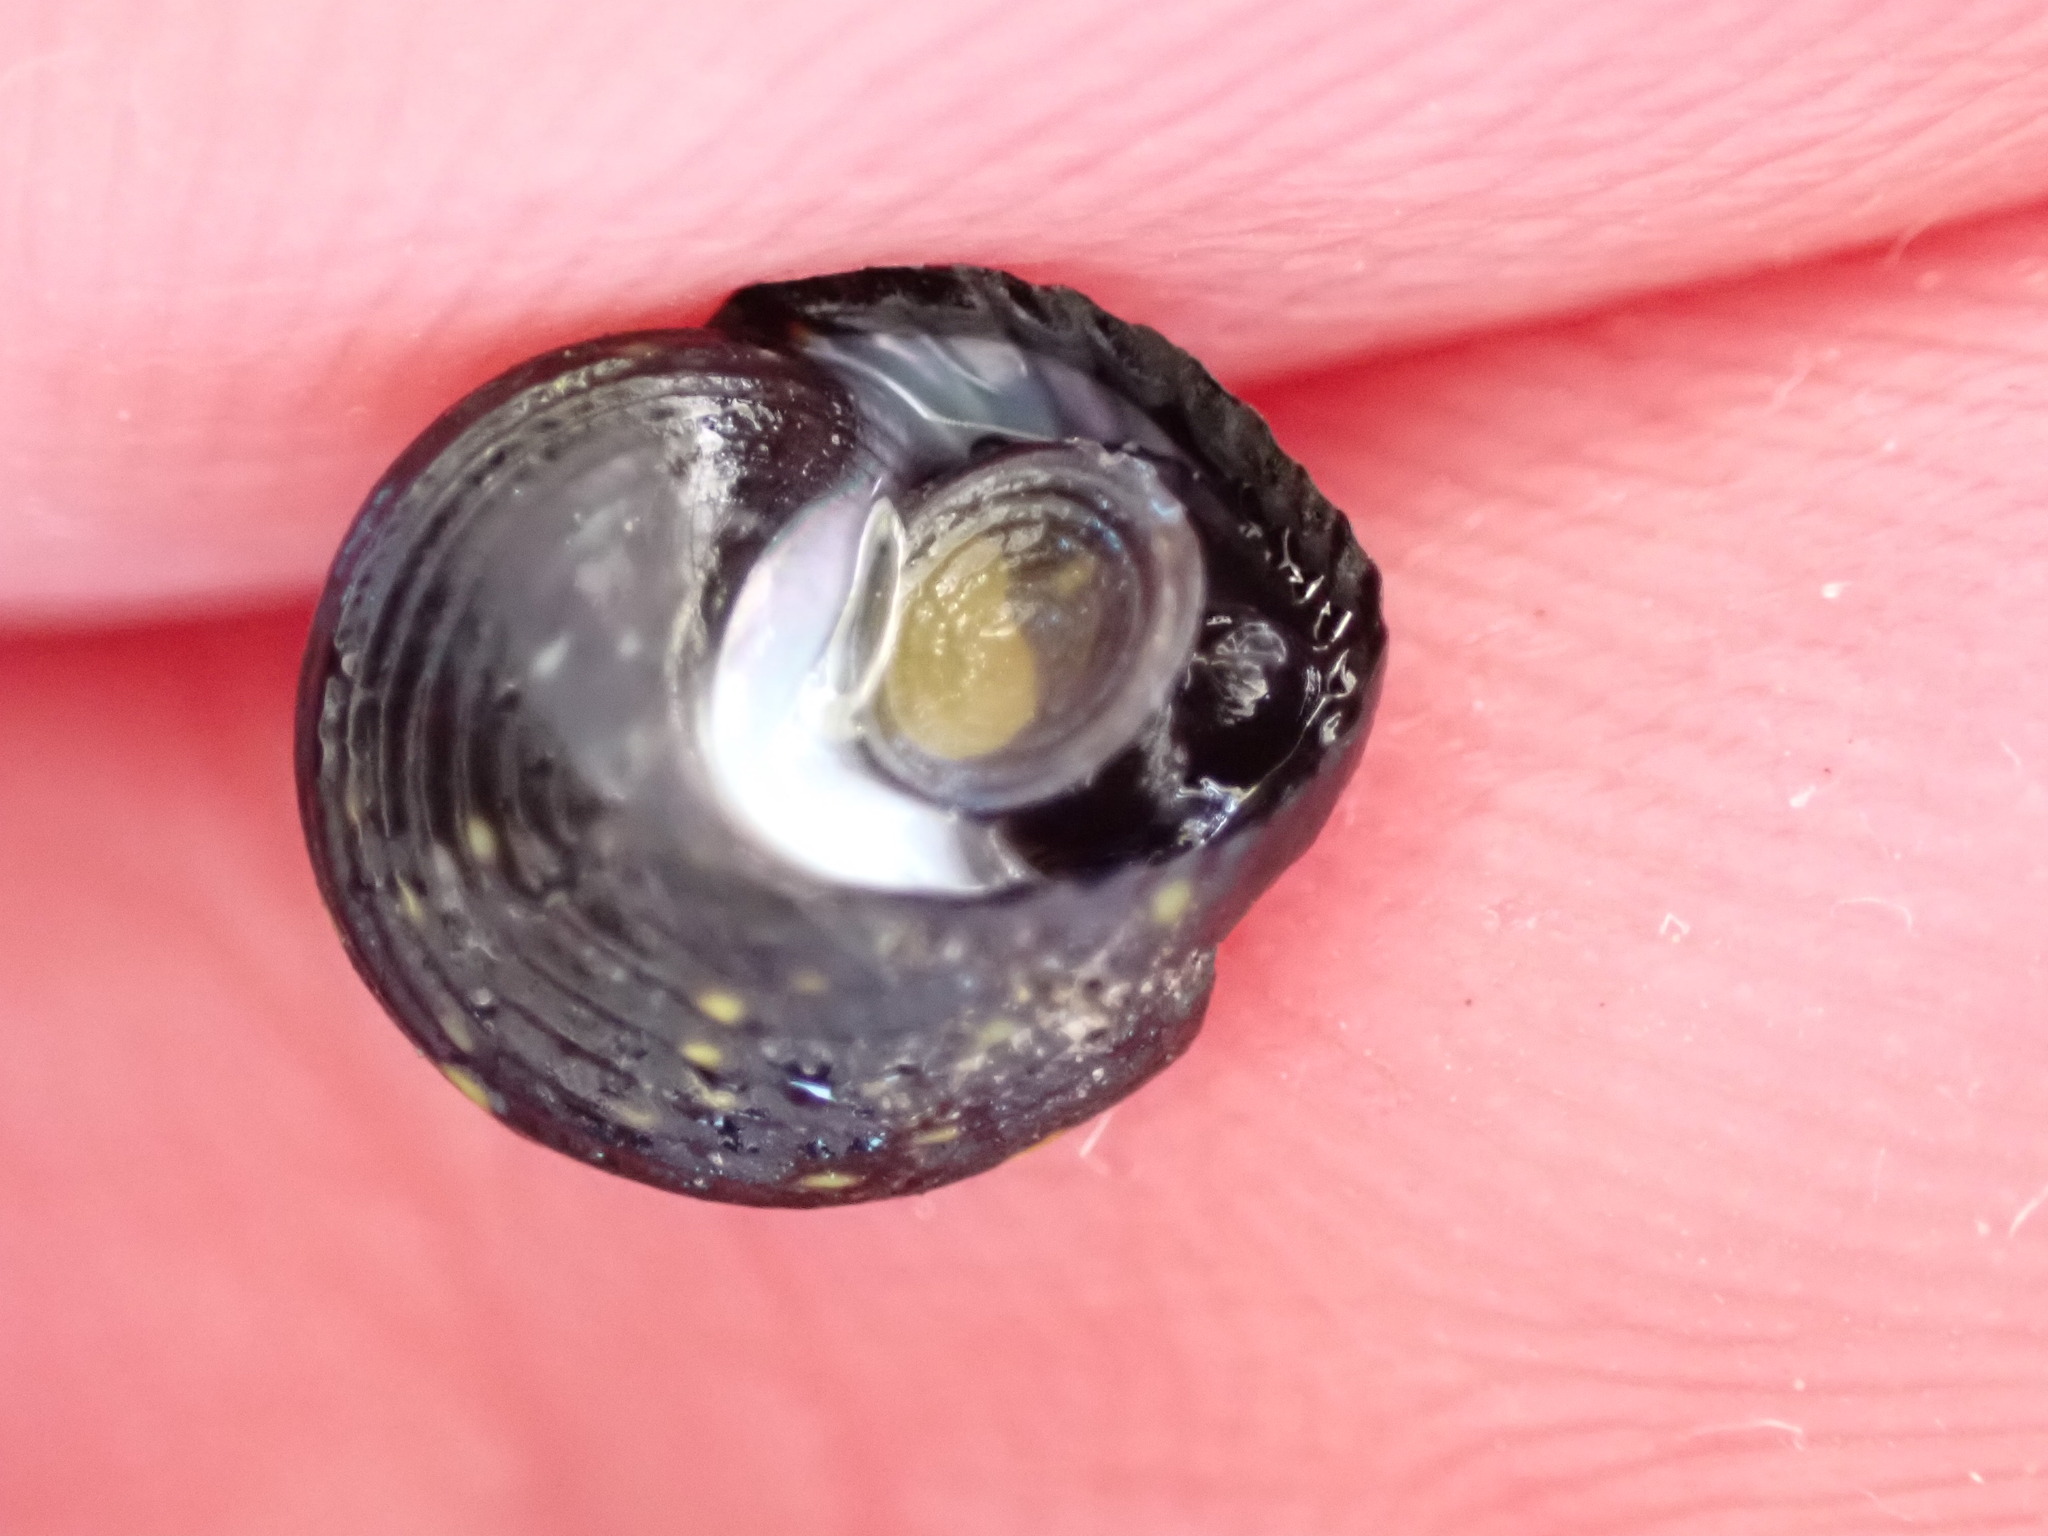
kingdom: Animalia
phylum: Mollusca
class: Gastropoda
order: Trochida
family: Trochidae
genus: Diloma
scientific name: Diloma aridum
